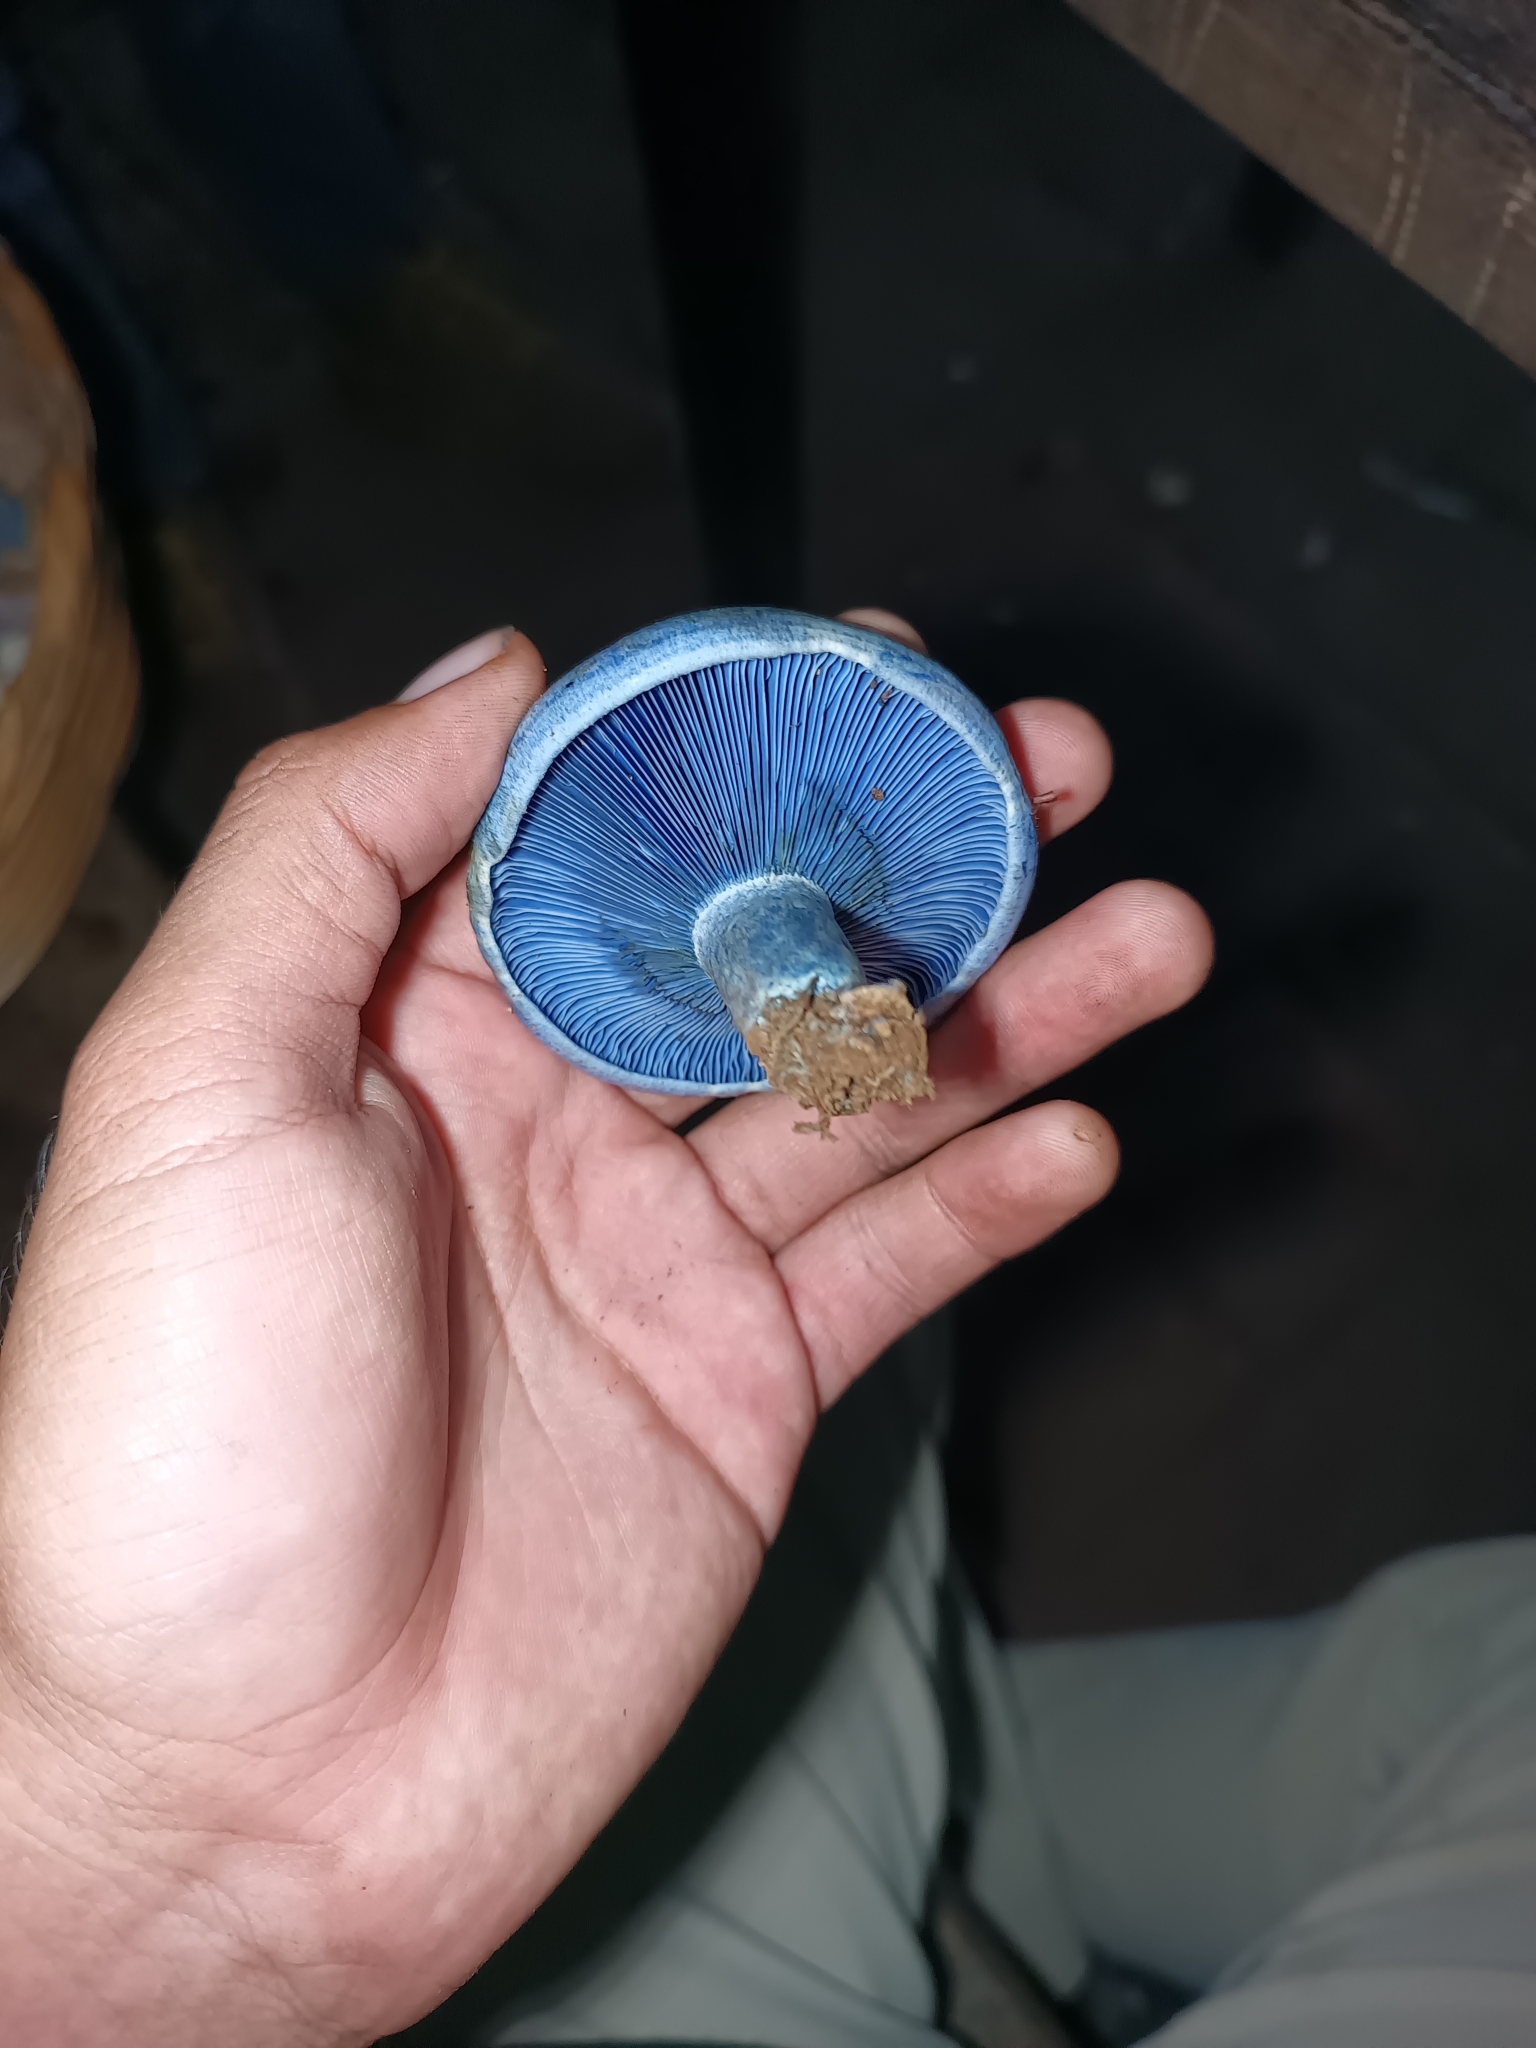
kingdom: Fungi
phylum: Basidiomycota
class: Agaricomycetes
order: Russulales
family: Russulaceae
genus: Lactarius
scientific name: Lactarius indigo
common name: Indigo milk cap
